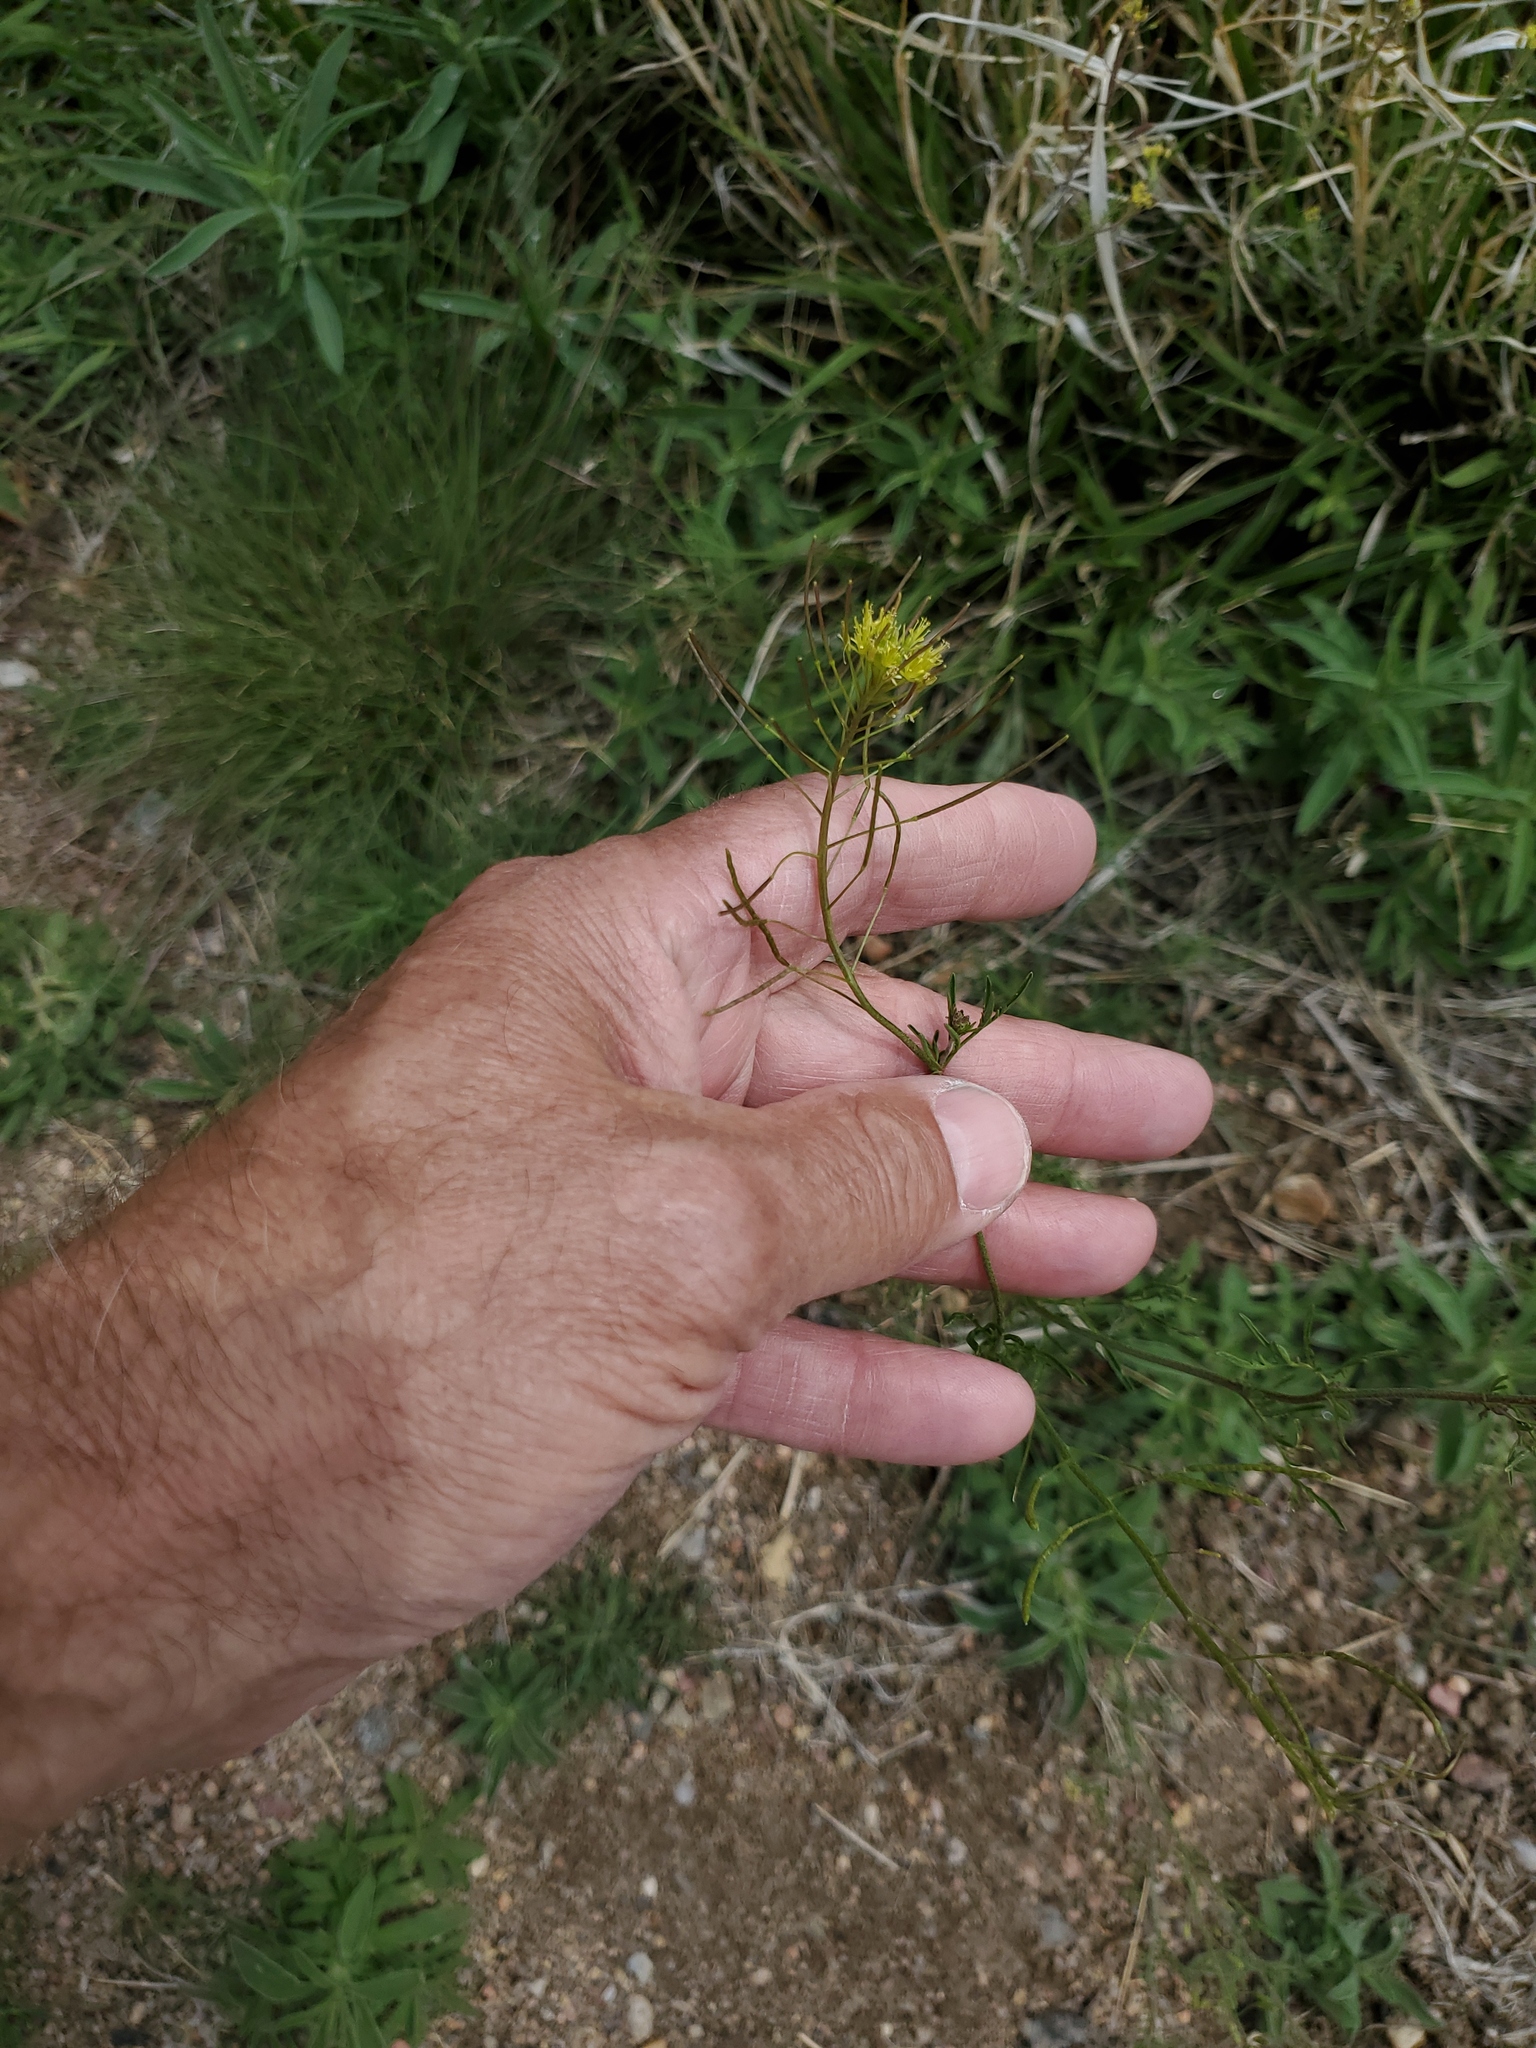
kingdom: Plantae
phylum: Tracheophyta
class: Magnoliopsida
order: Brassicales
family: Brassicaceae
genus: Descurainia
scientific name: Descurainia sophia
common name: Flixweed
